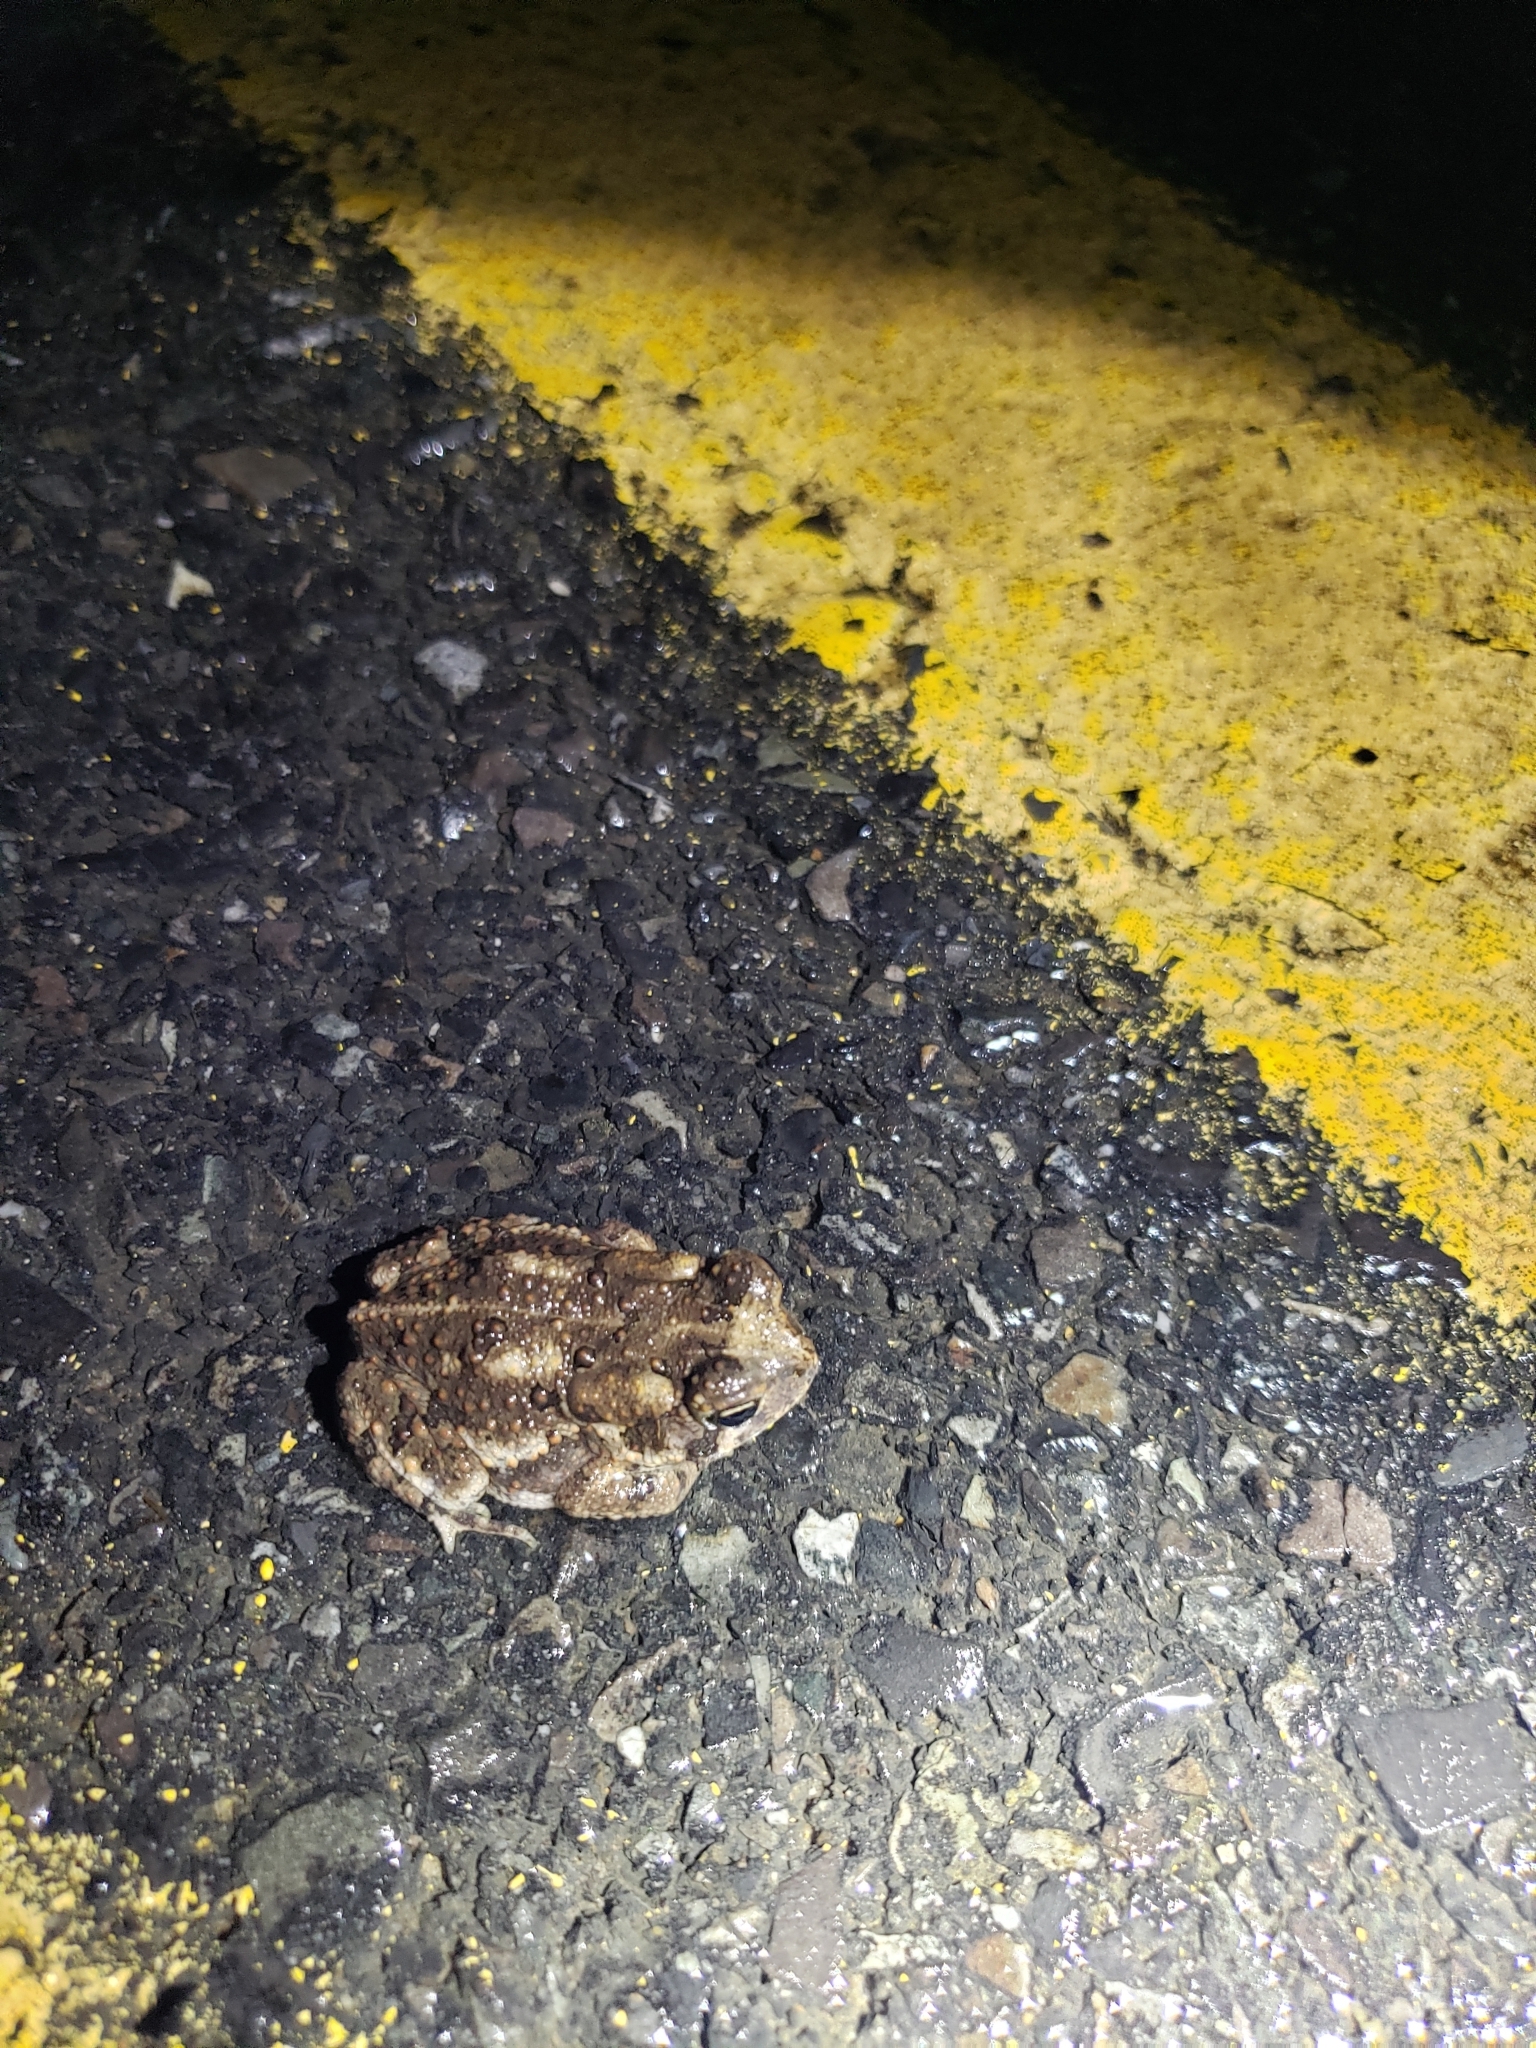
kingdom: Animalia
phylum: Chordata
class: Amphibia
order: Anura
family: Bufonidae
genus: Anaxyrus
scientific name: Anaxyrus americanus
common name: American toad
